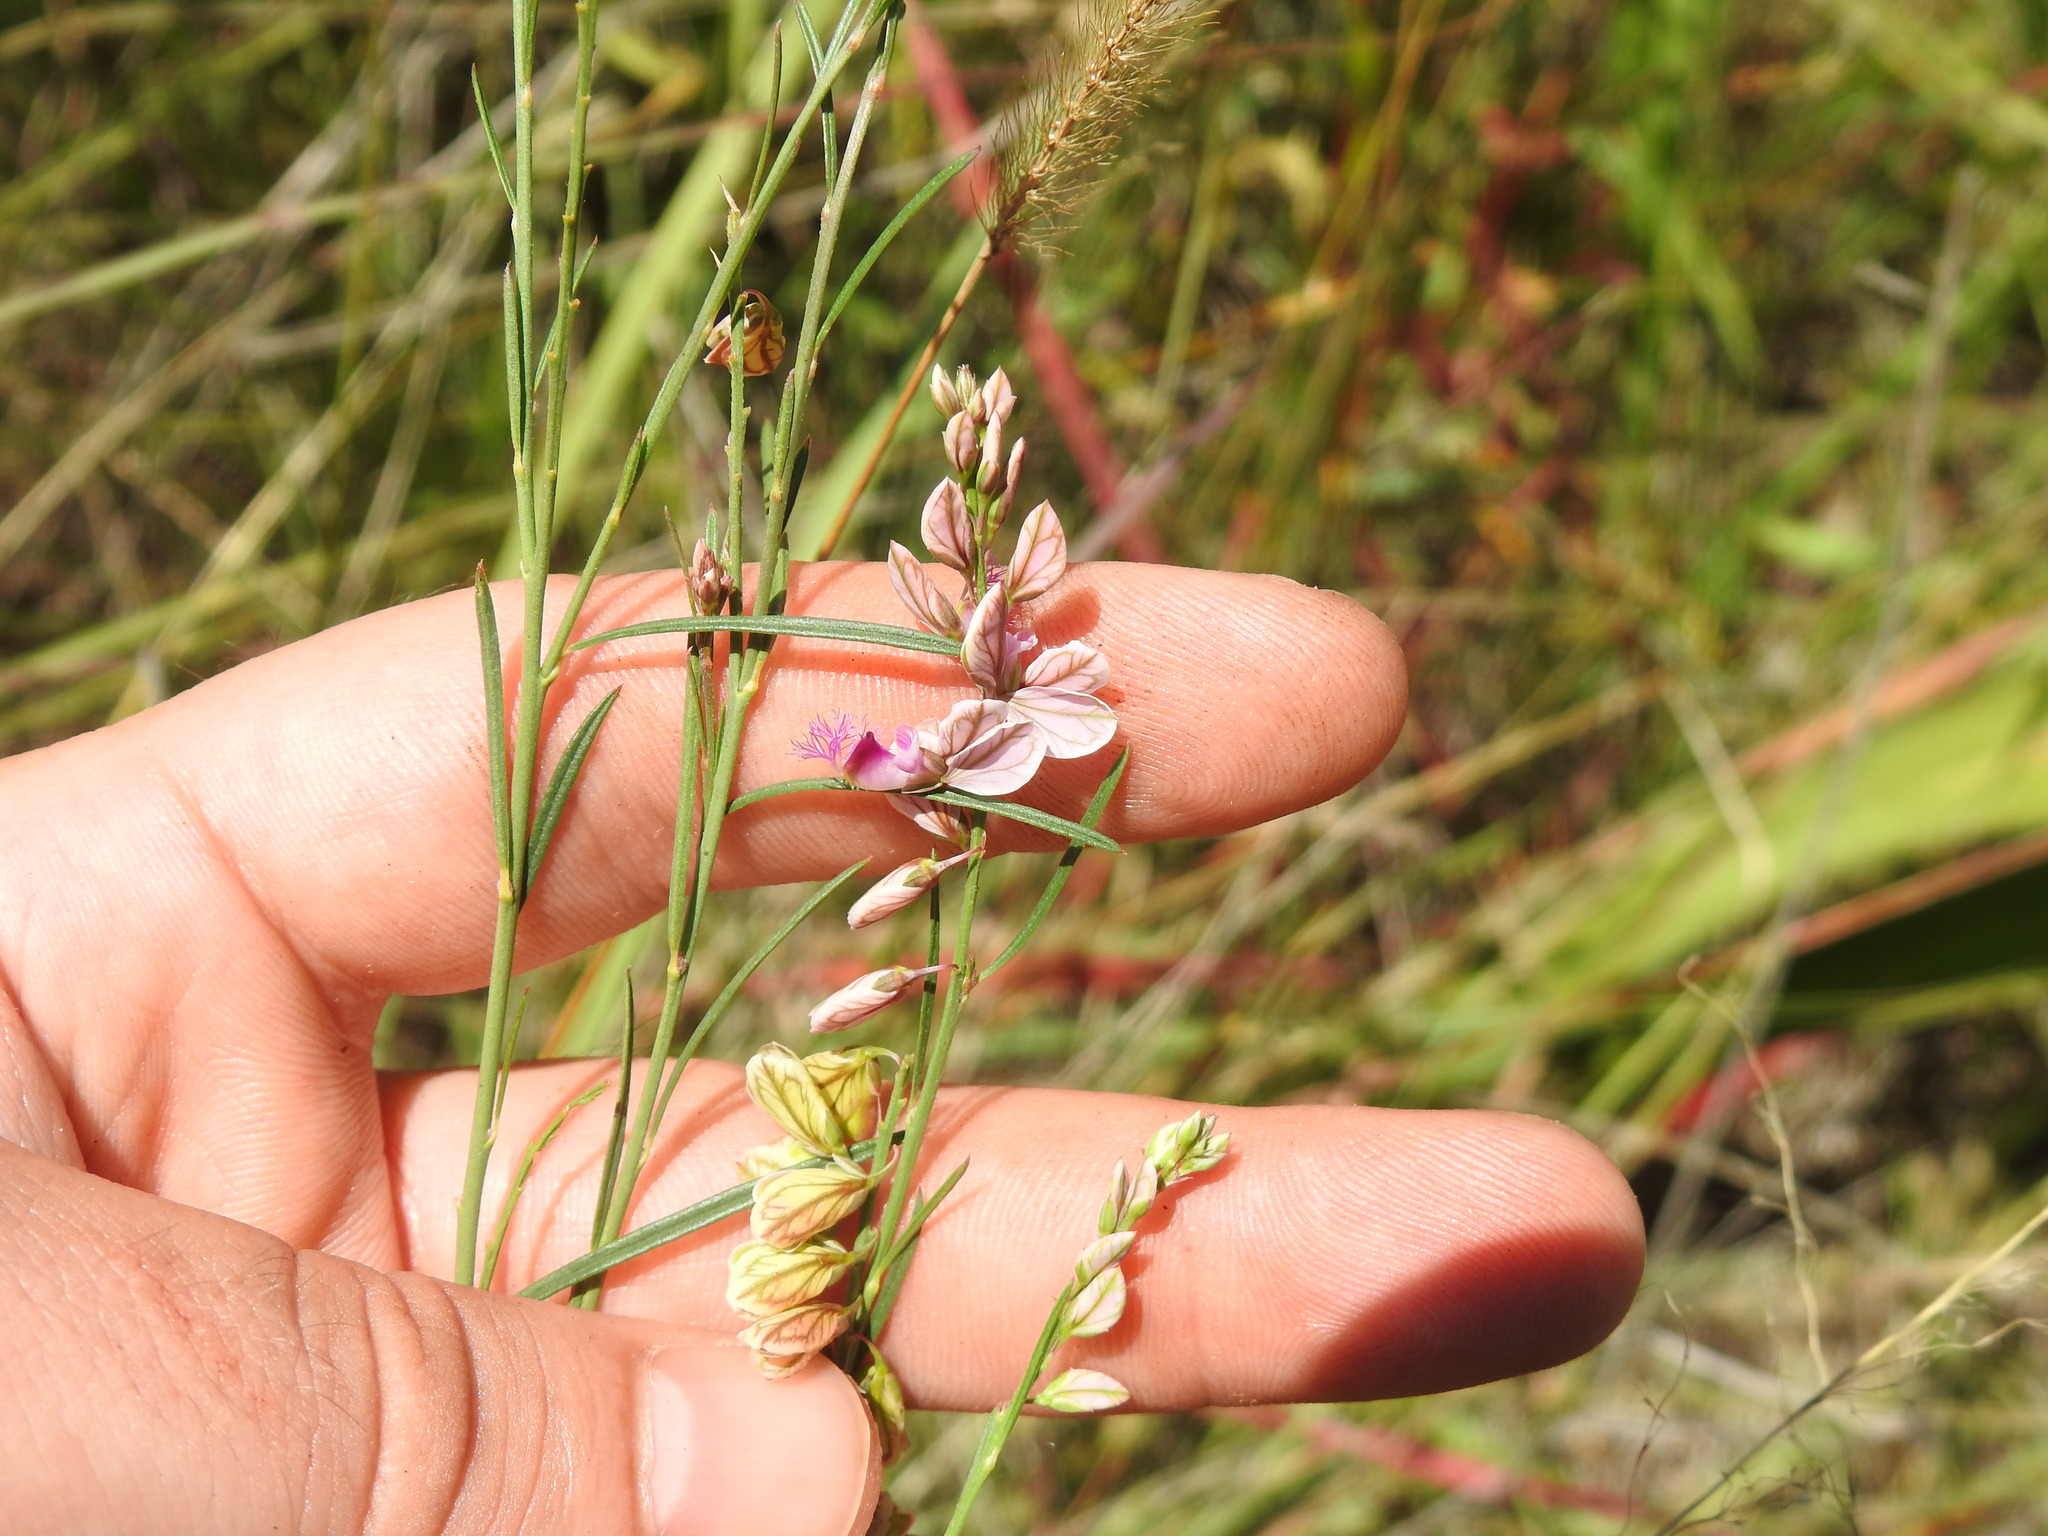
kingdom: Plantae
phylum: Tracheophyta
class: Magnoliopsida
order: Fabales
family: Polygalaceae
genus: Polygala
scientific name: Polygala hottentotta
